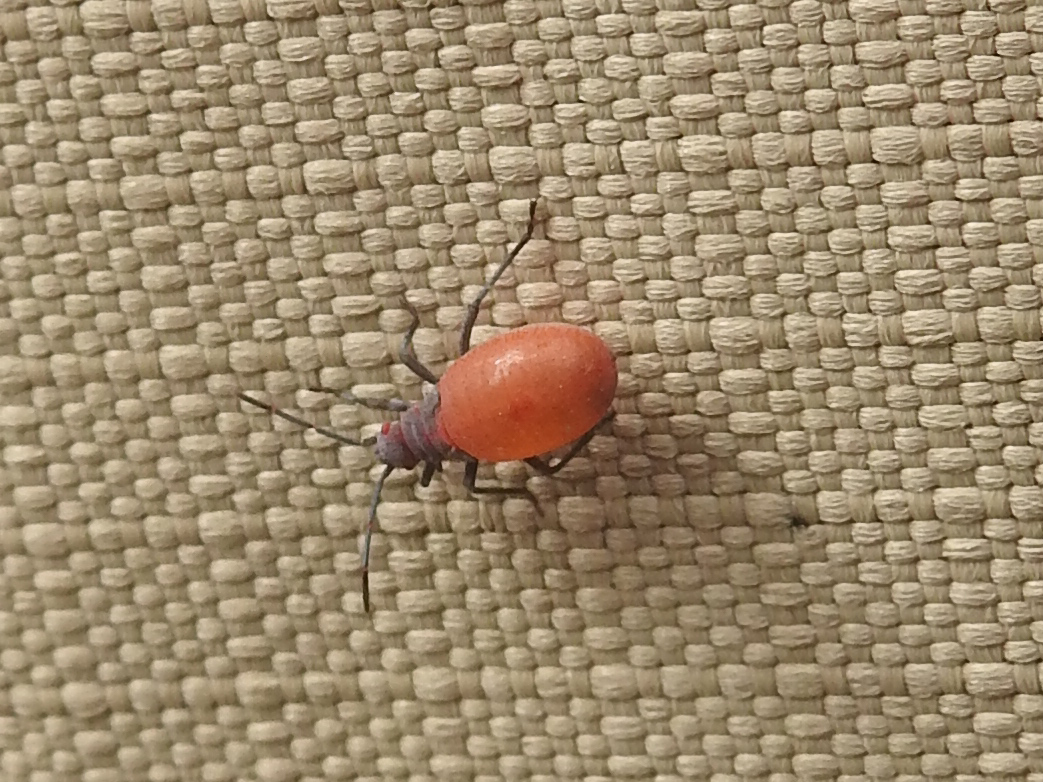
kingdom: Animalia
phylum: Arthropoda
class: Insecta
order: Hemiptera
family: Rhopalidae
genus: Jadera
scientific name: Jadera haematoloma
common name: Red-shouldered bug
